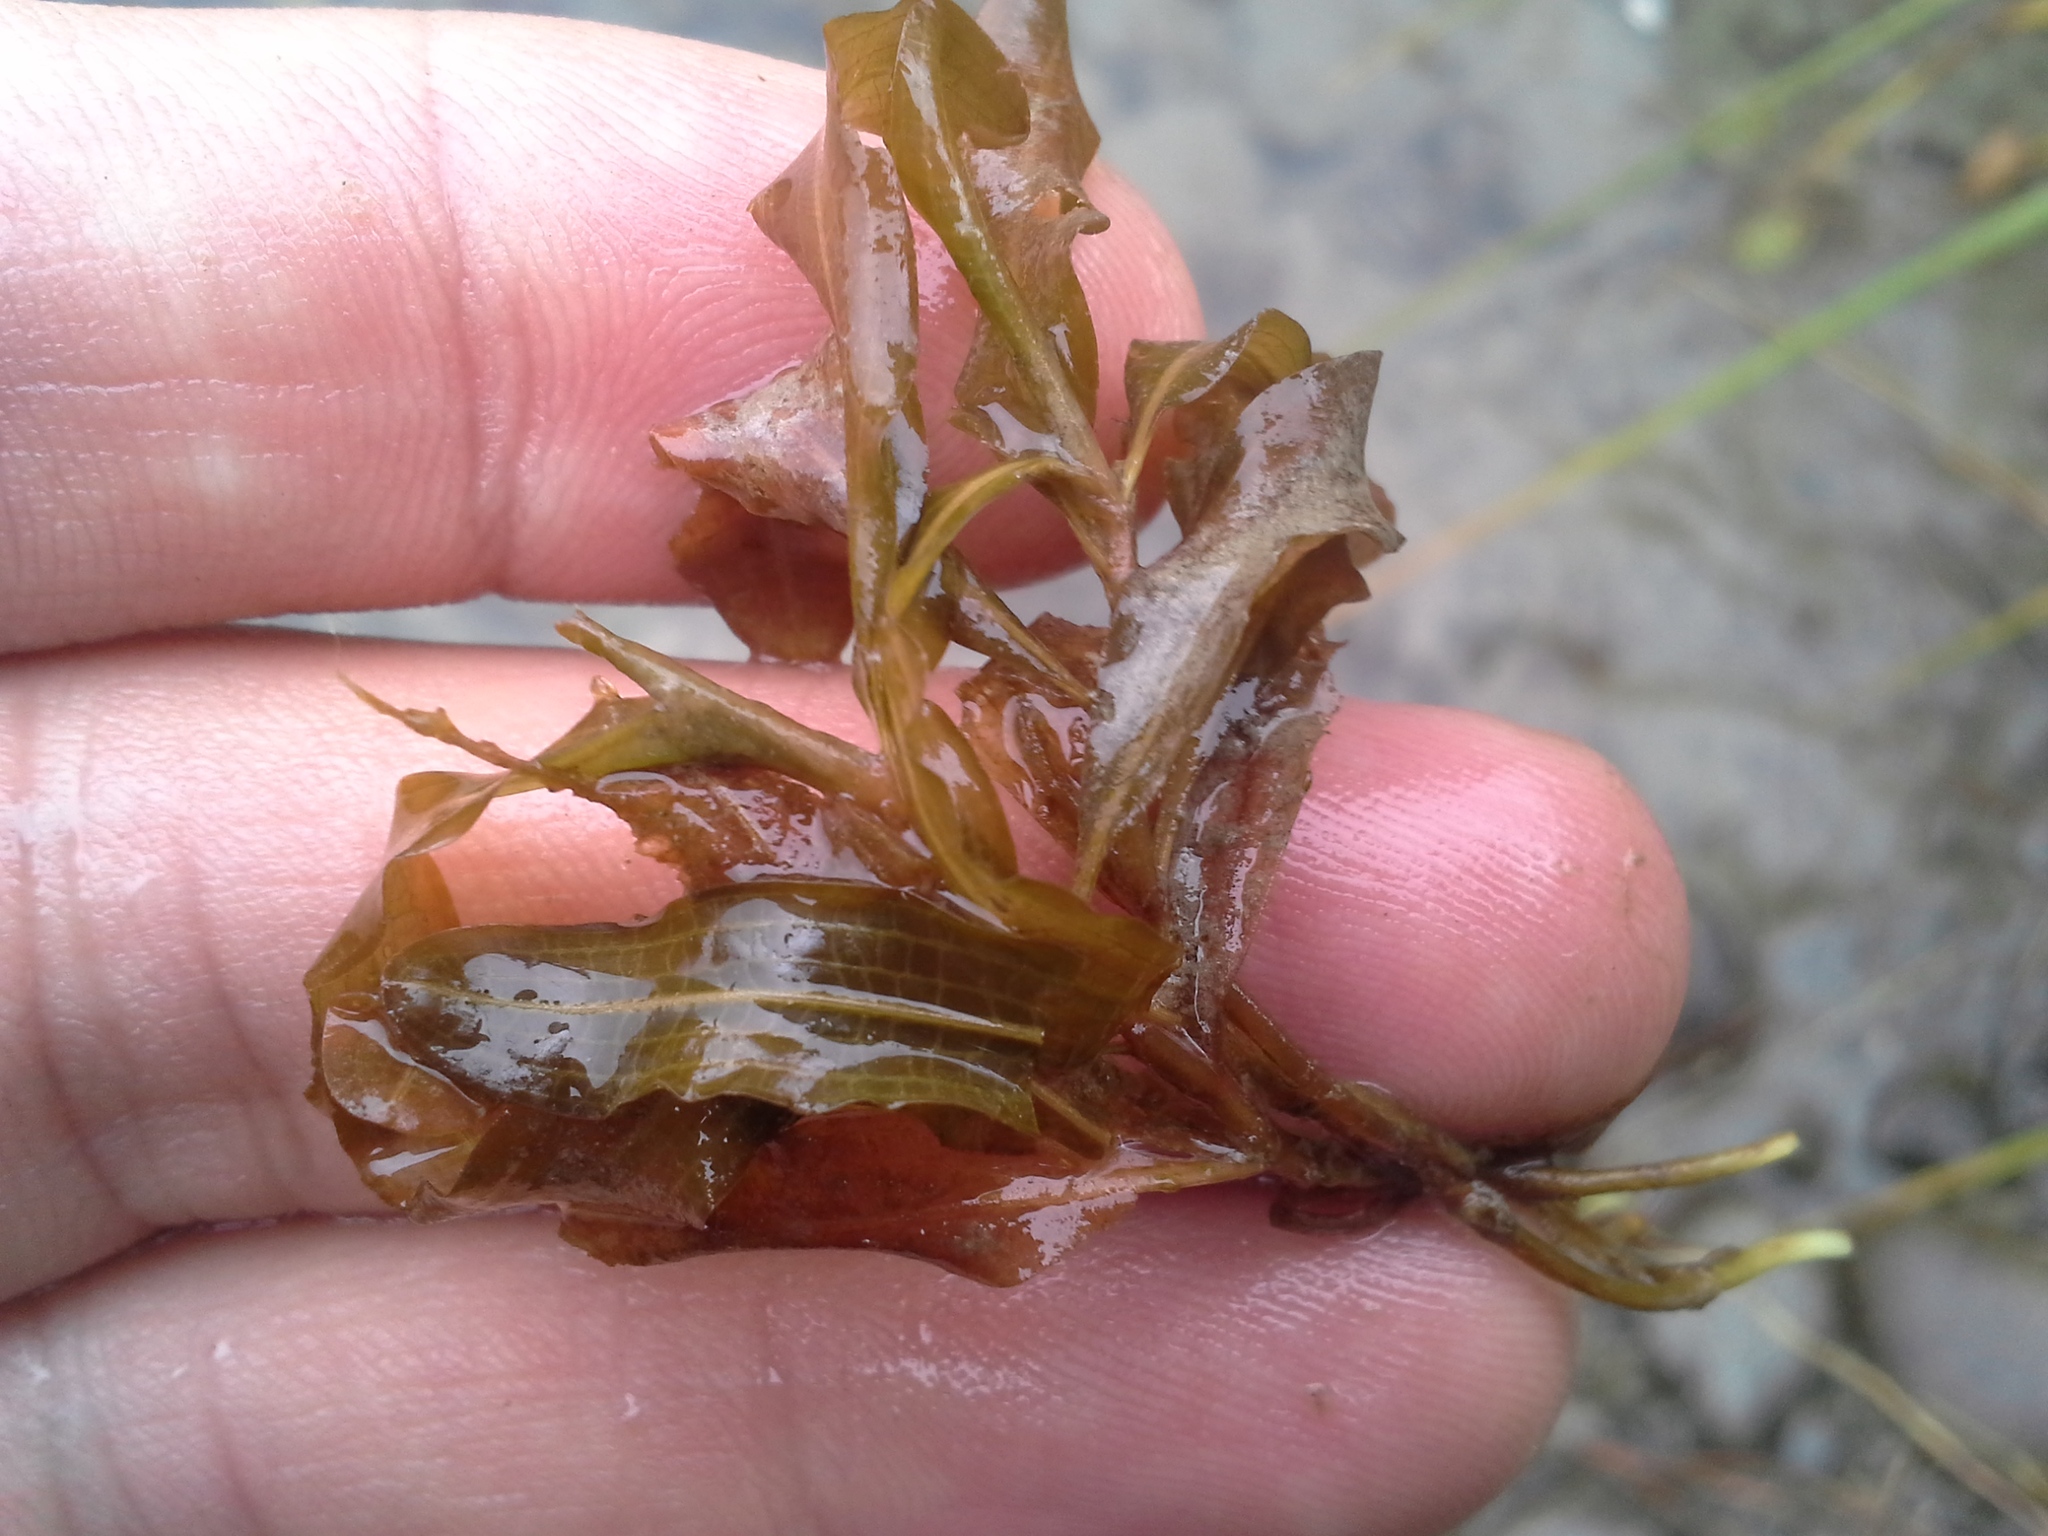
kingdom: Plantae
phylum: Tracheophyta
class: Liliopsida
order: Alismatales
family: Potamogetonaceae
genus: Potamogeton
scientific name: Potamogeton cheesemanii
